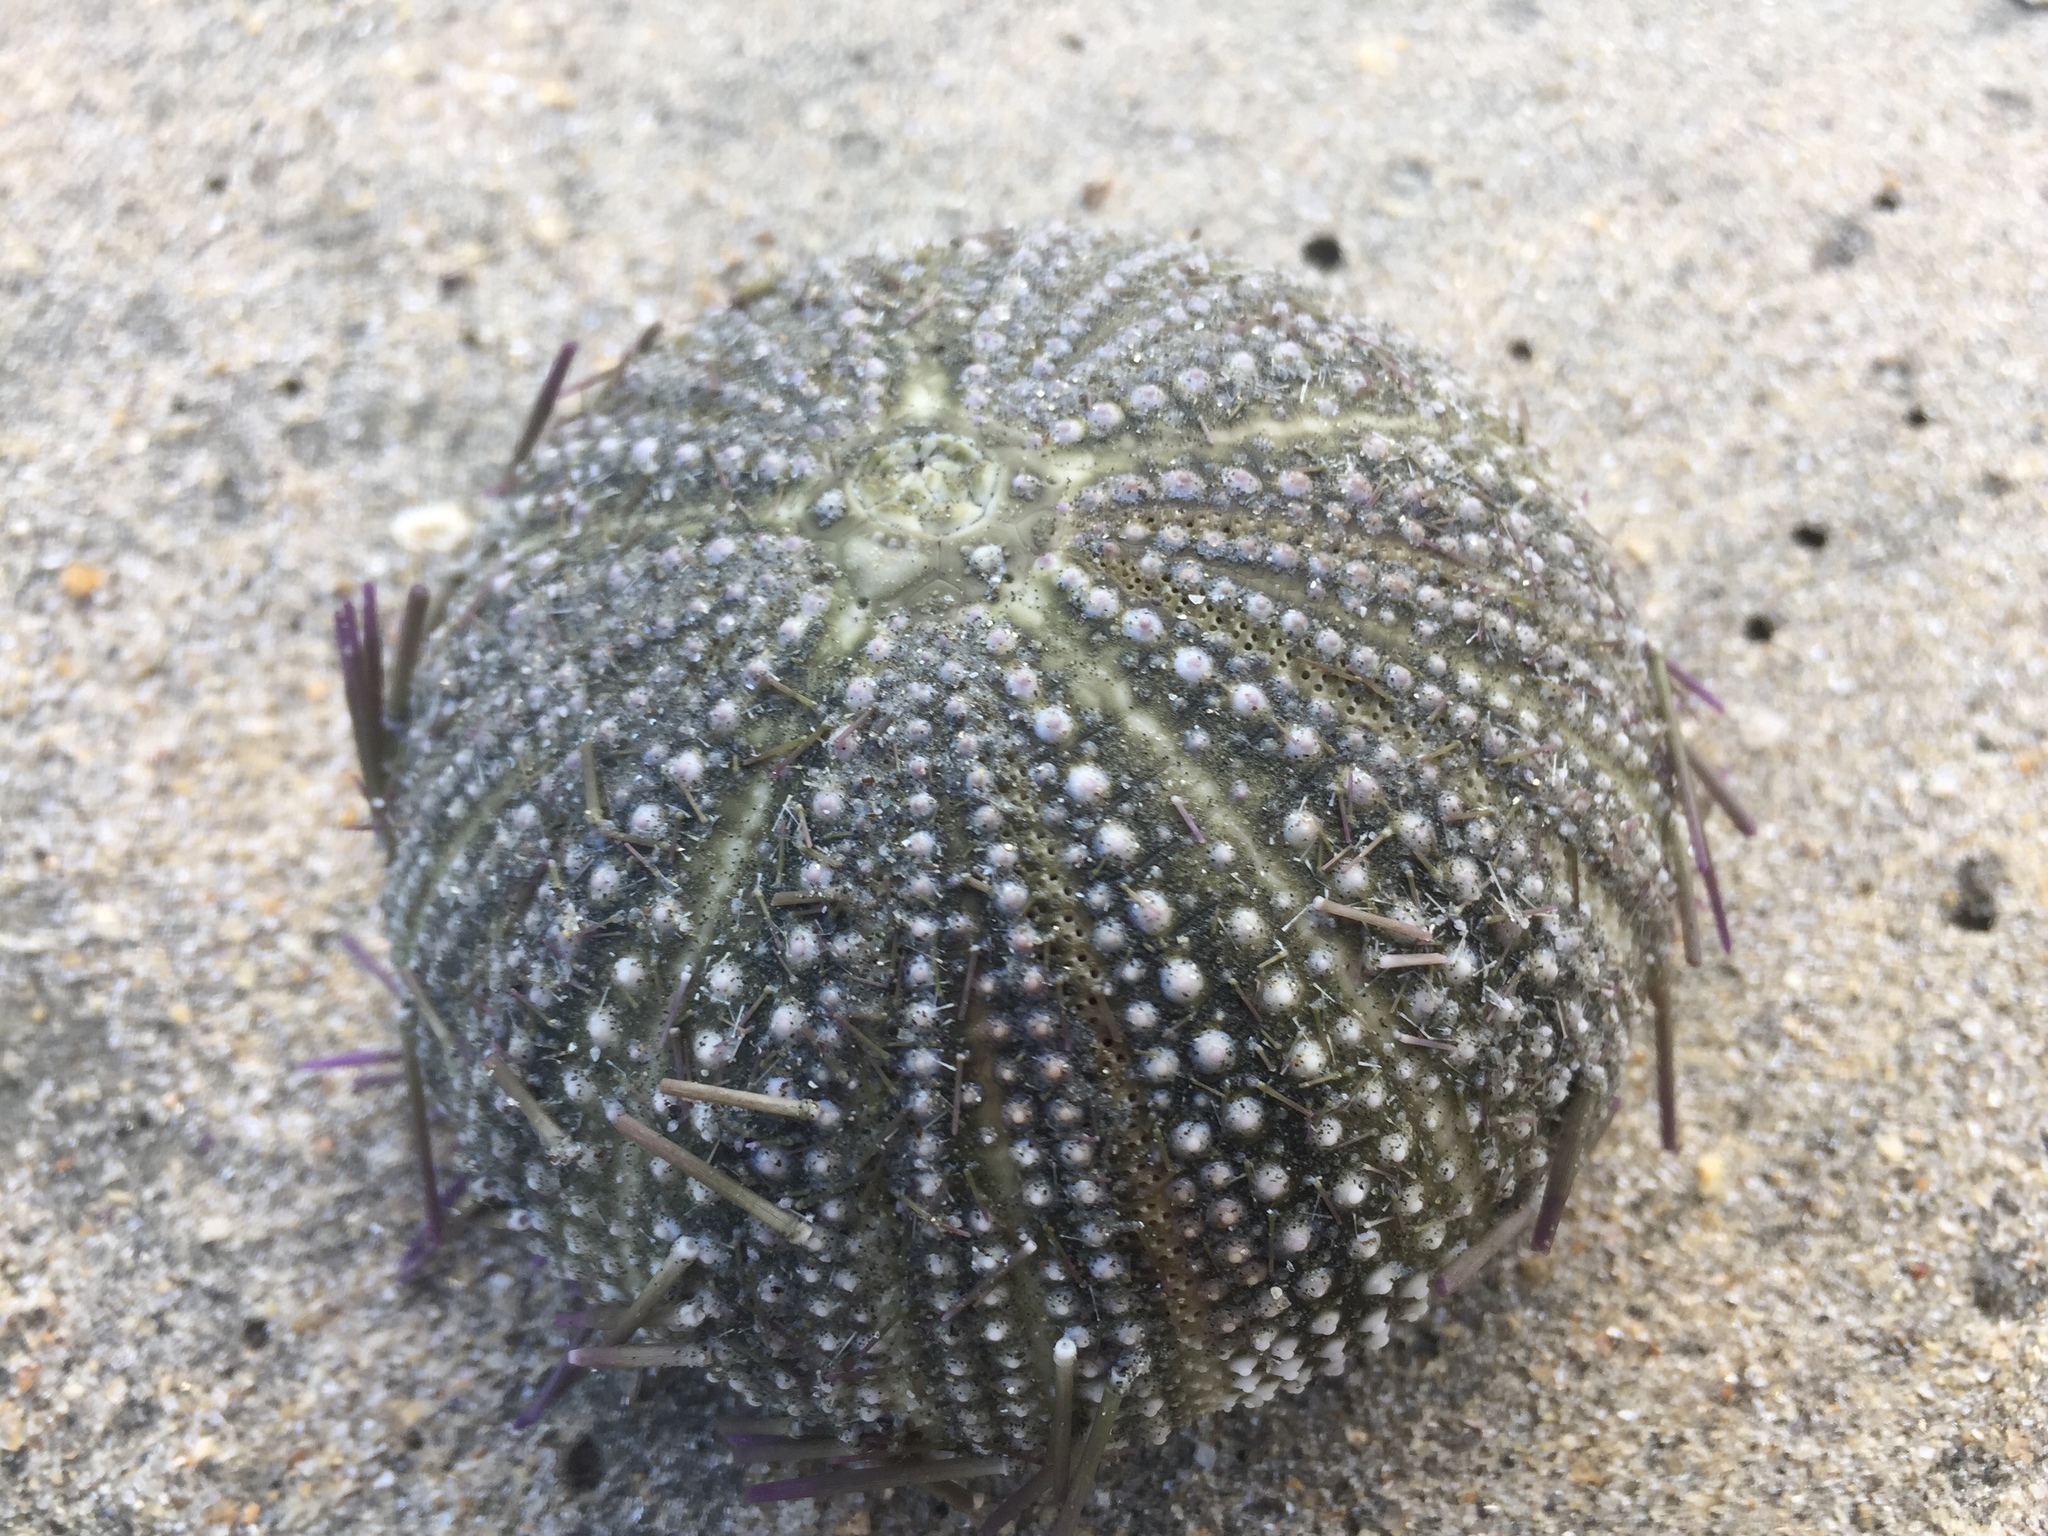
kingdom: Animalia
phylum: Echinodermata
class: Echinoidea
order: Camarodonta
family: Toxopneustidae
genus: Lytechinus
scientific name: Lytechinus variegatus
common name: Variegated urchin
